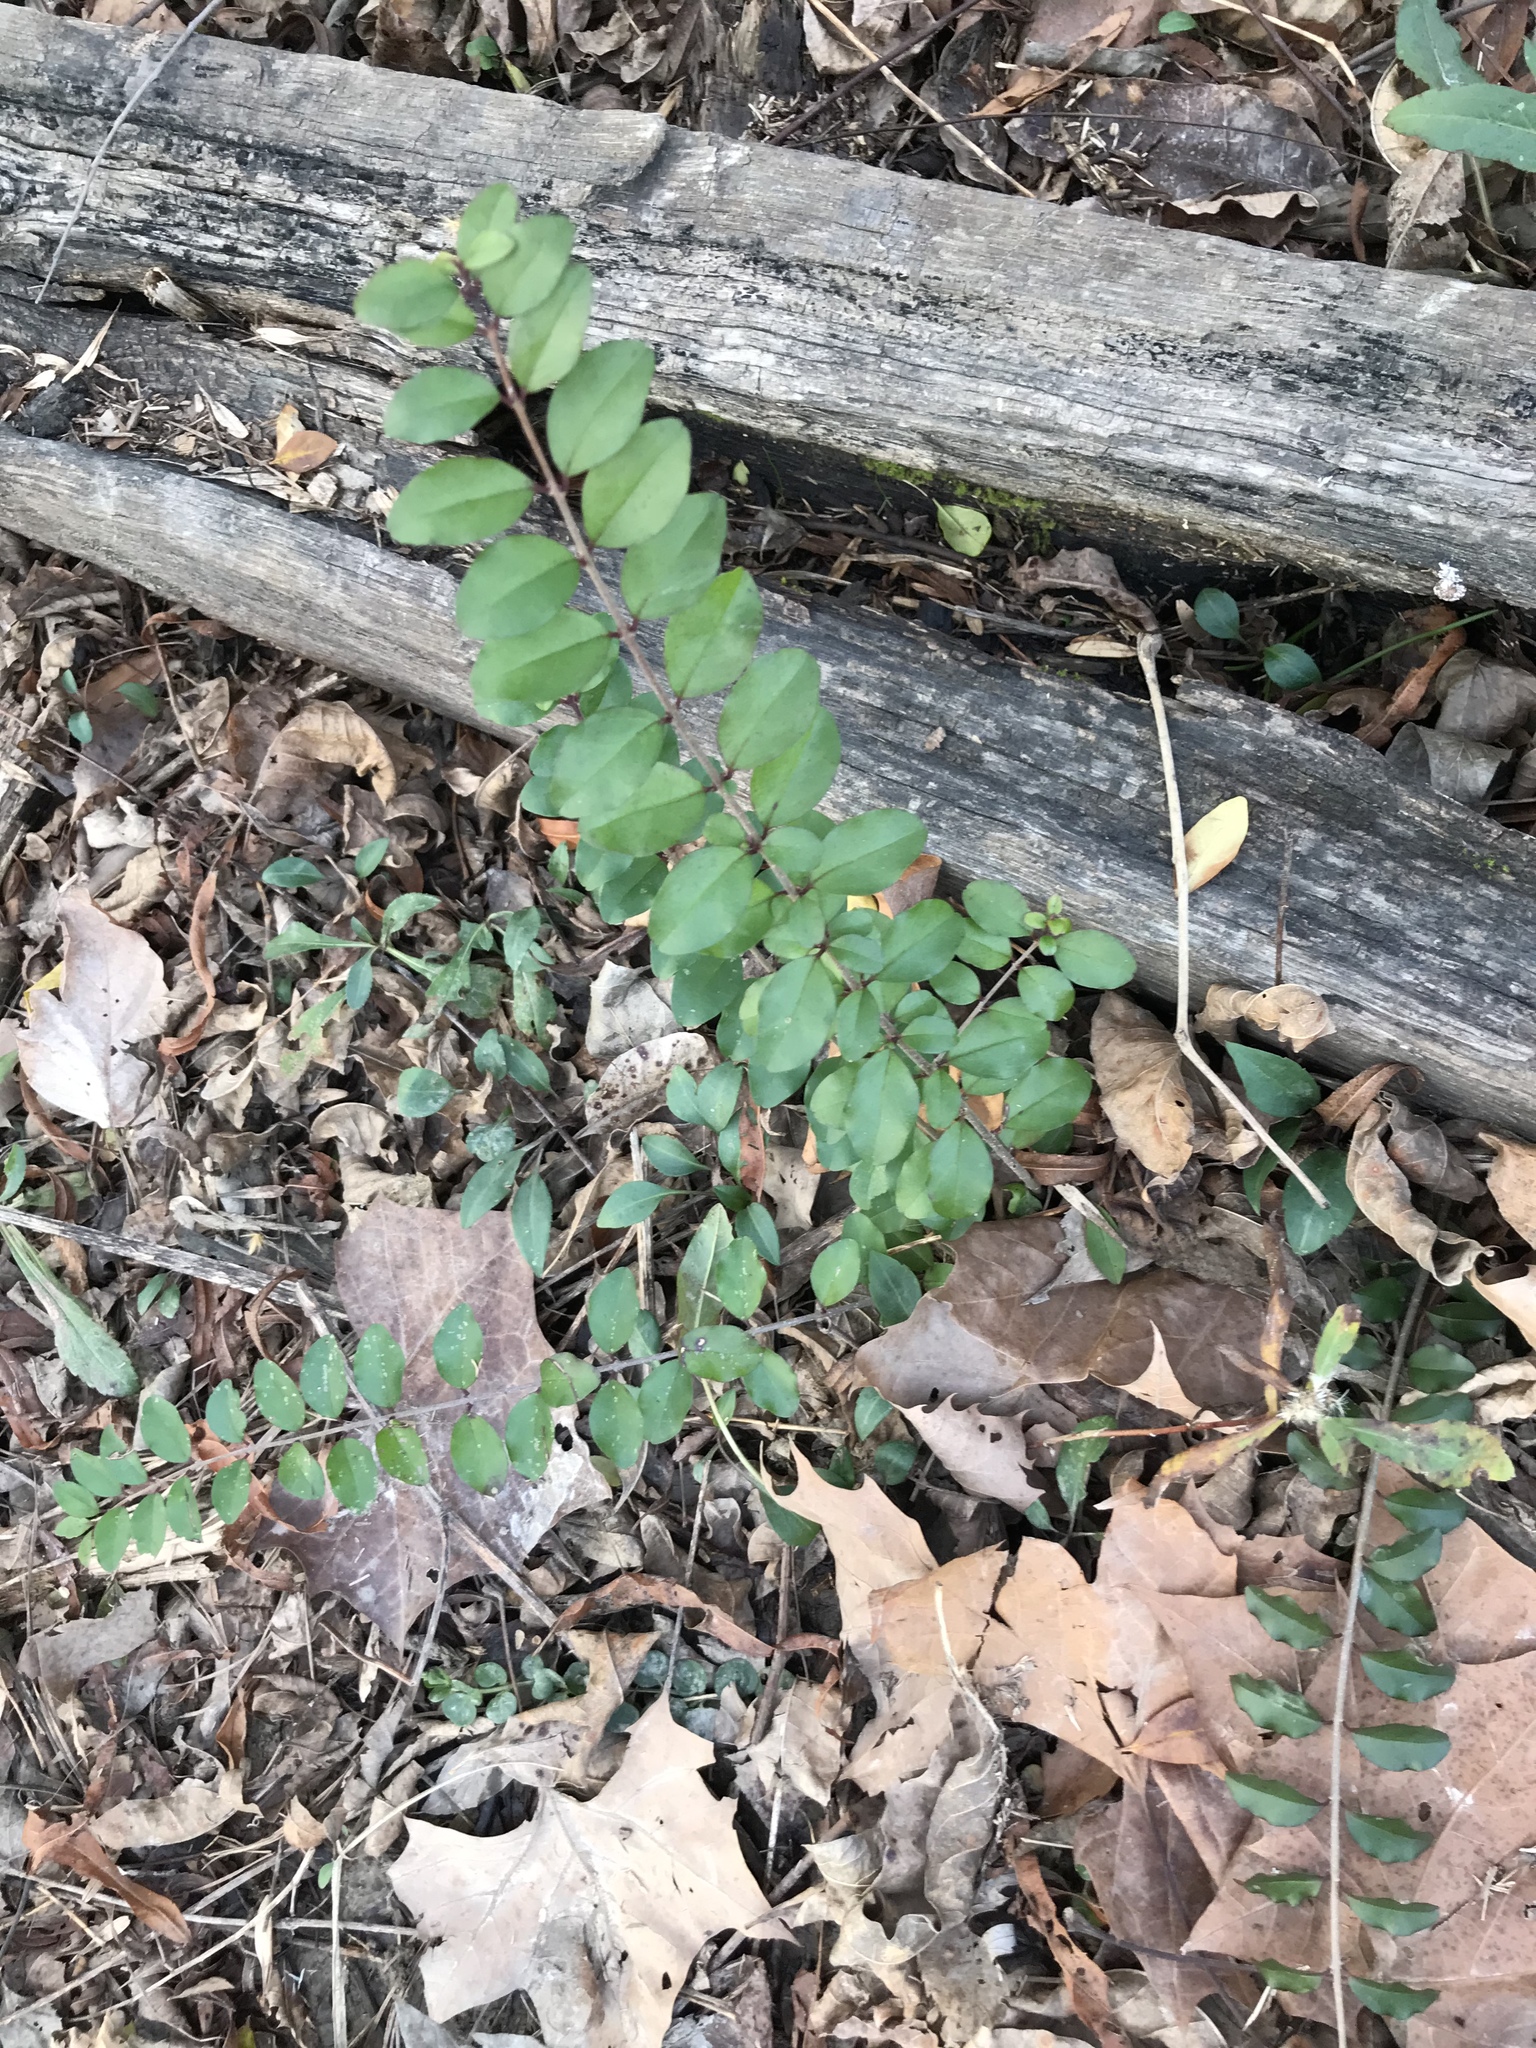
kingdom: Plantae
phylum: Tracheophyta
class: Magnoliopsida
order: Lamiales
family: Oleaceae
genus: Ligustrum
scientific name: Ligustrum sinense
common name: Chinese privet
